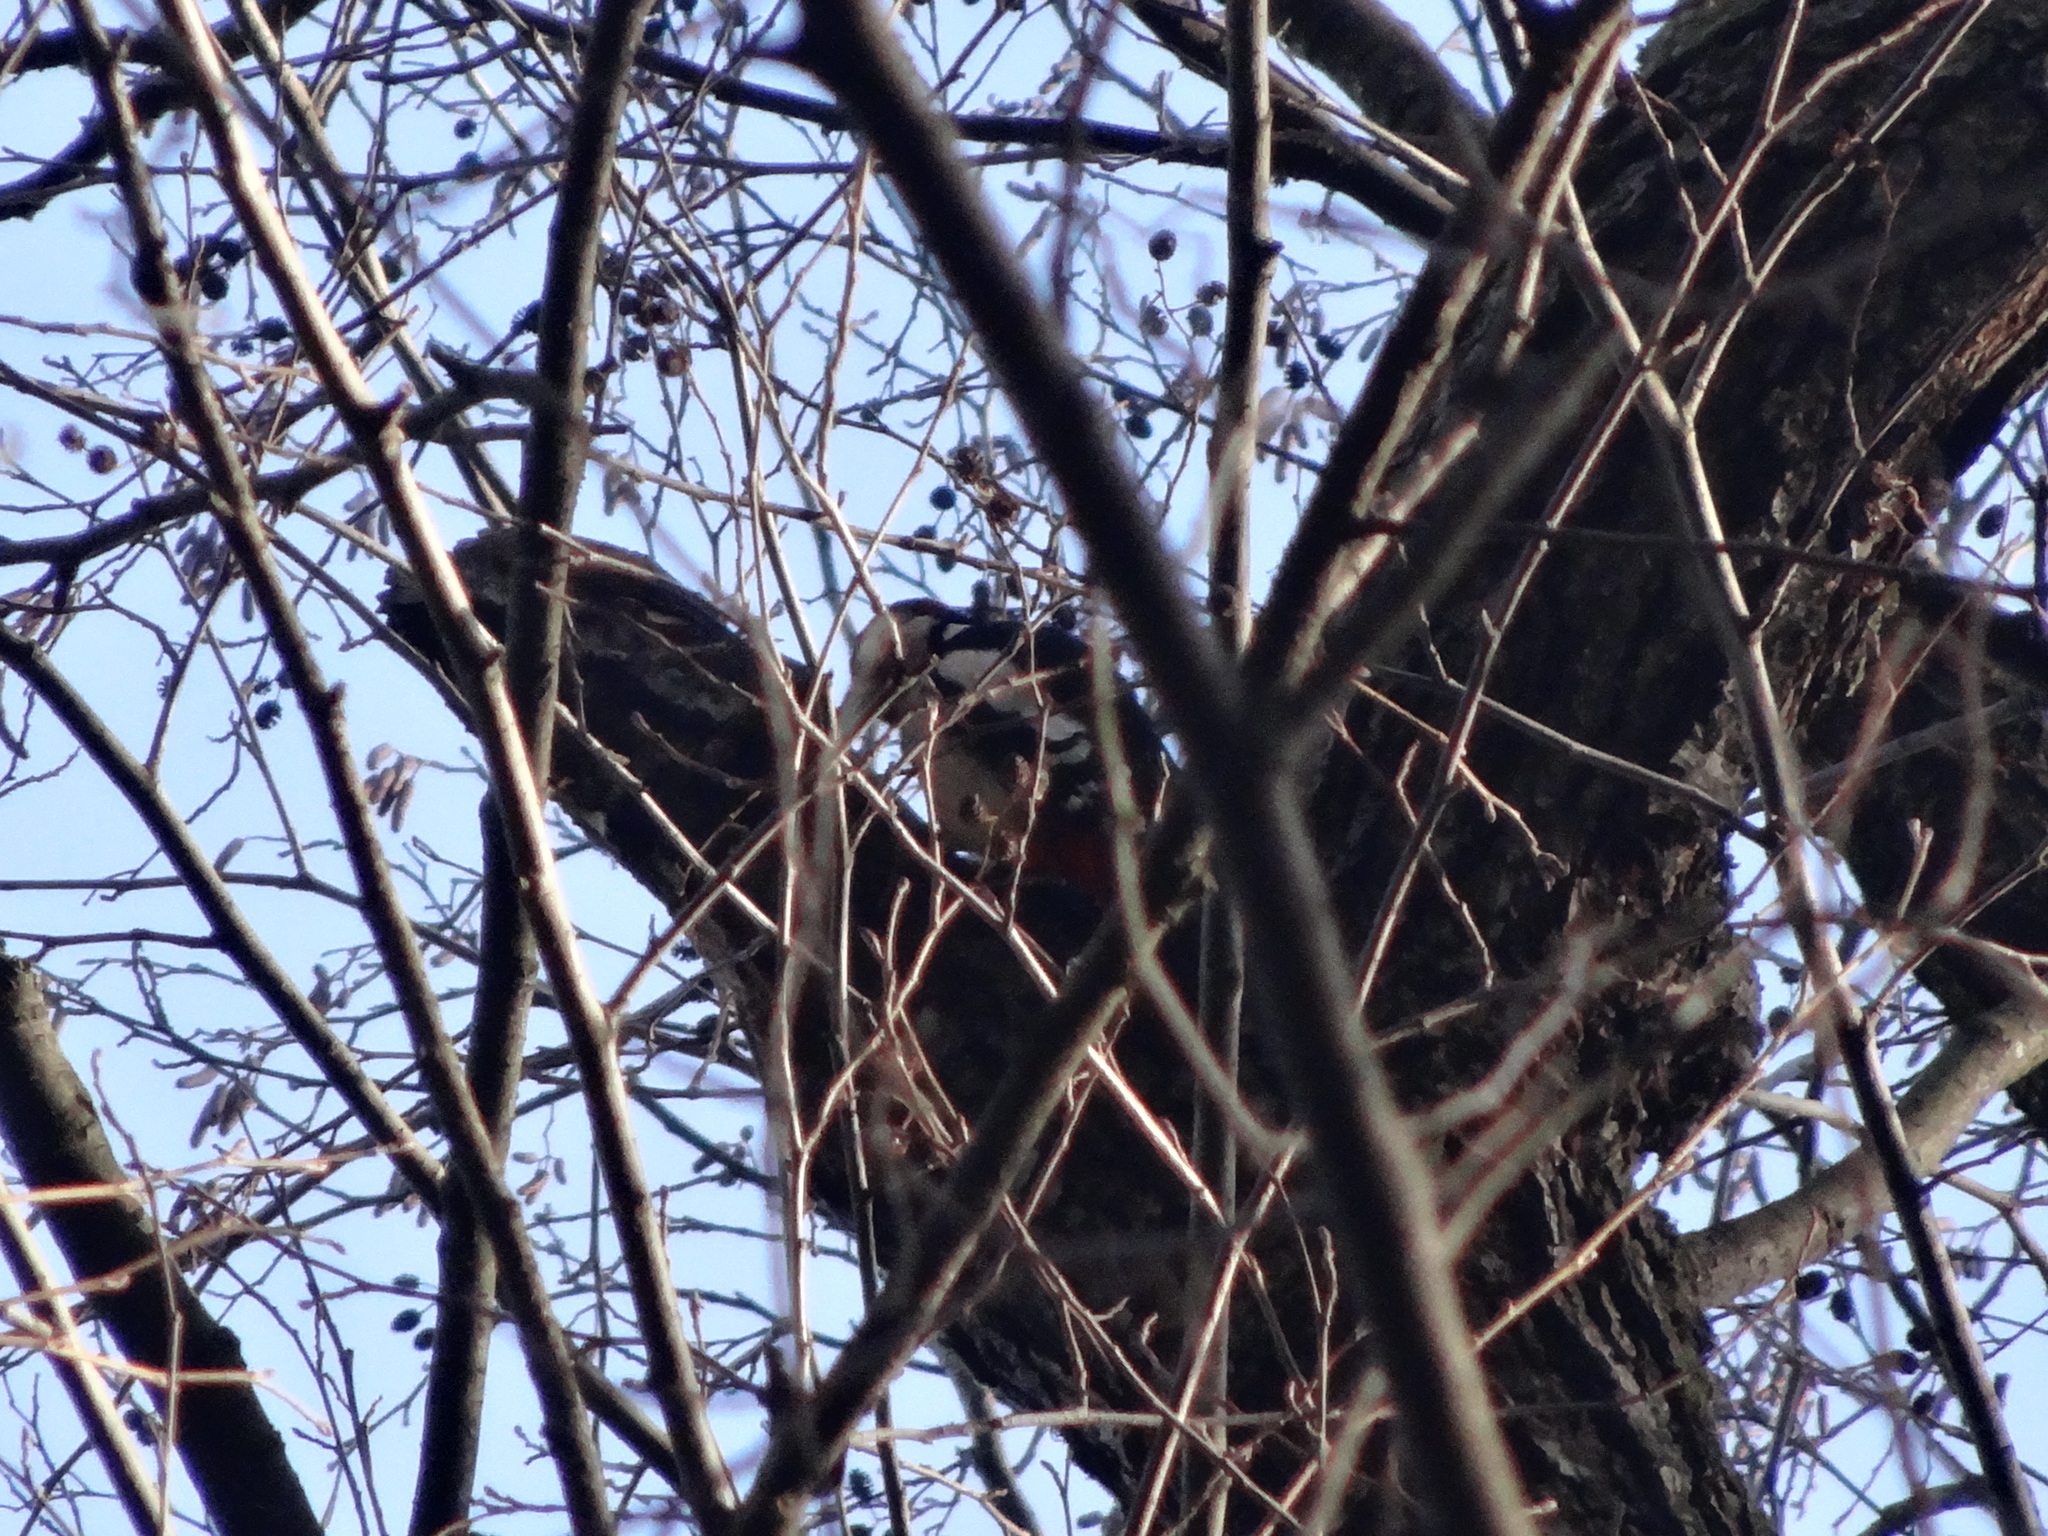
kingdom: Animalia
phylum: Chordata
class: Aves
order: Piciformes
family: Picidae
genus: Dendrocopos
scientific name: Dendrocopos major
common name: Great spotted woodpecker
